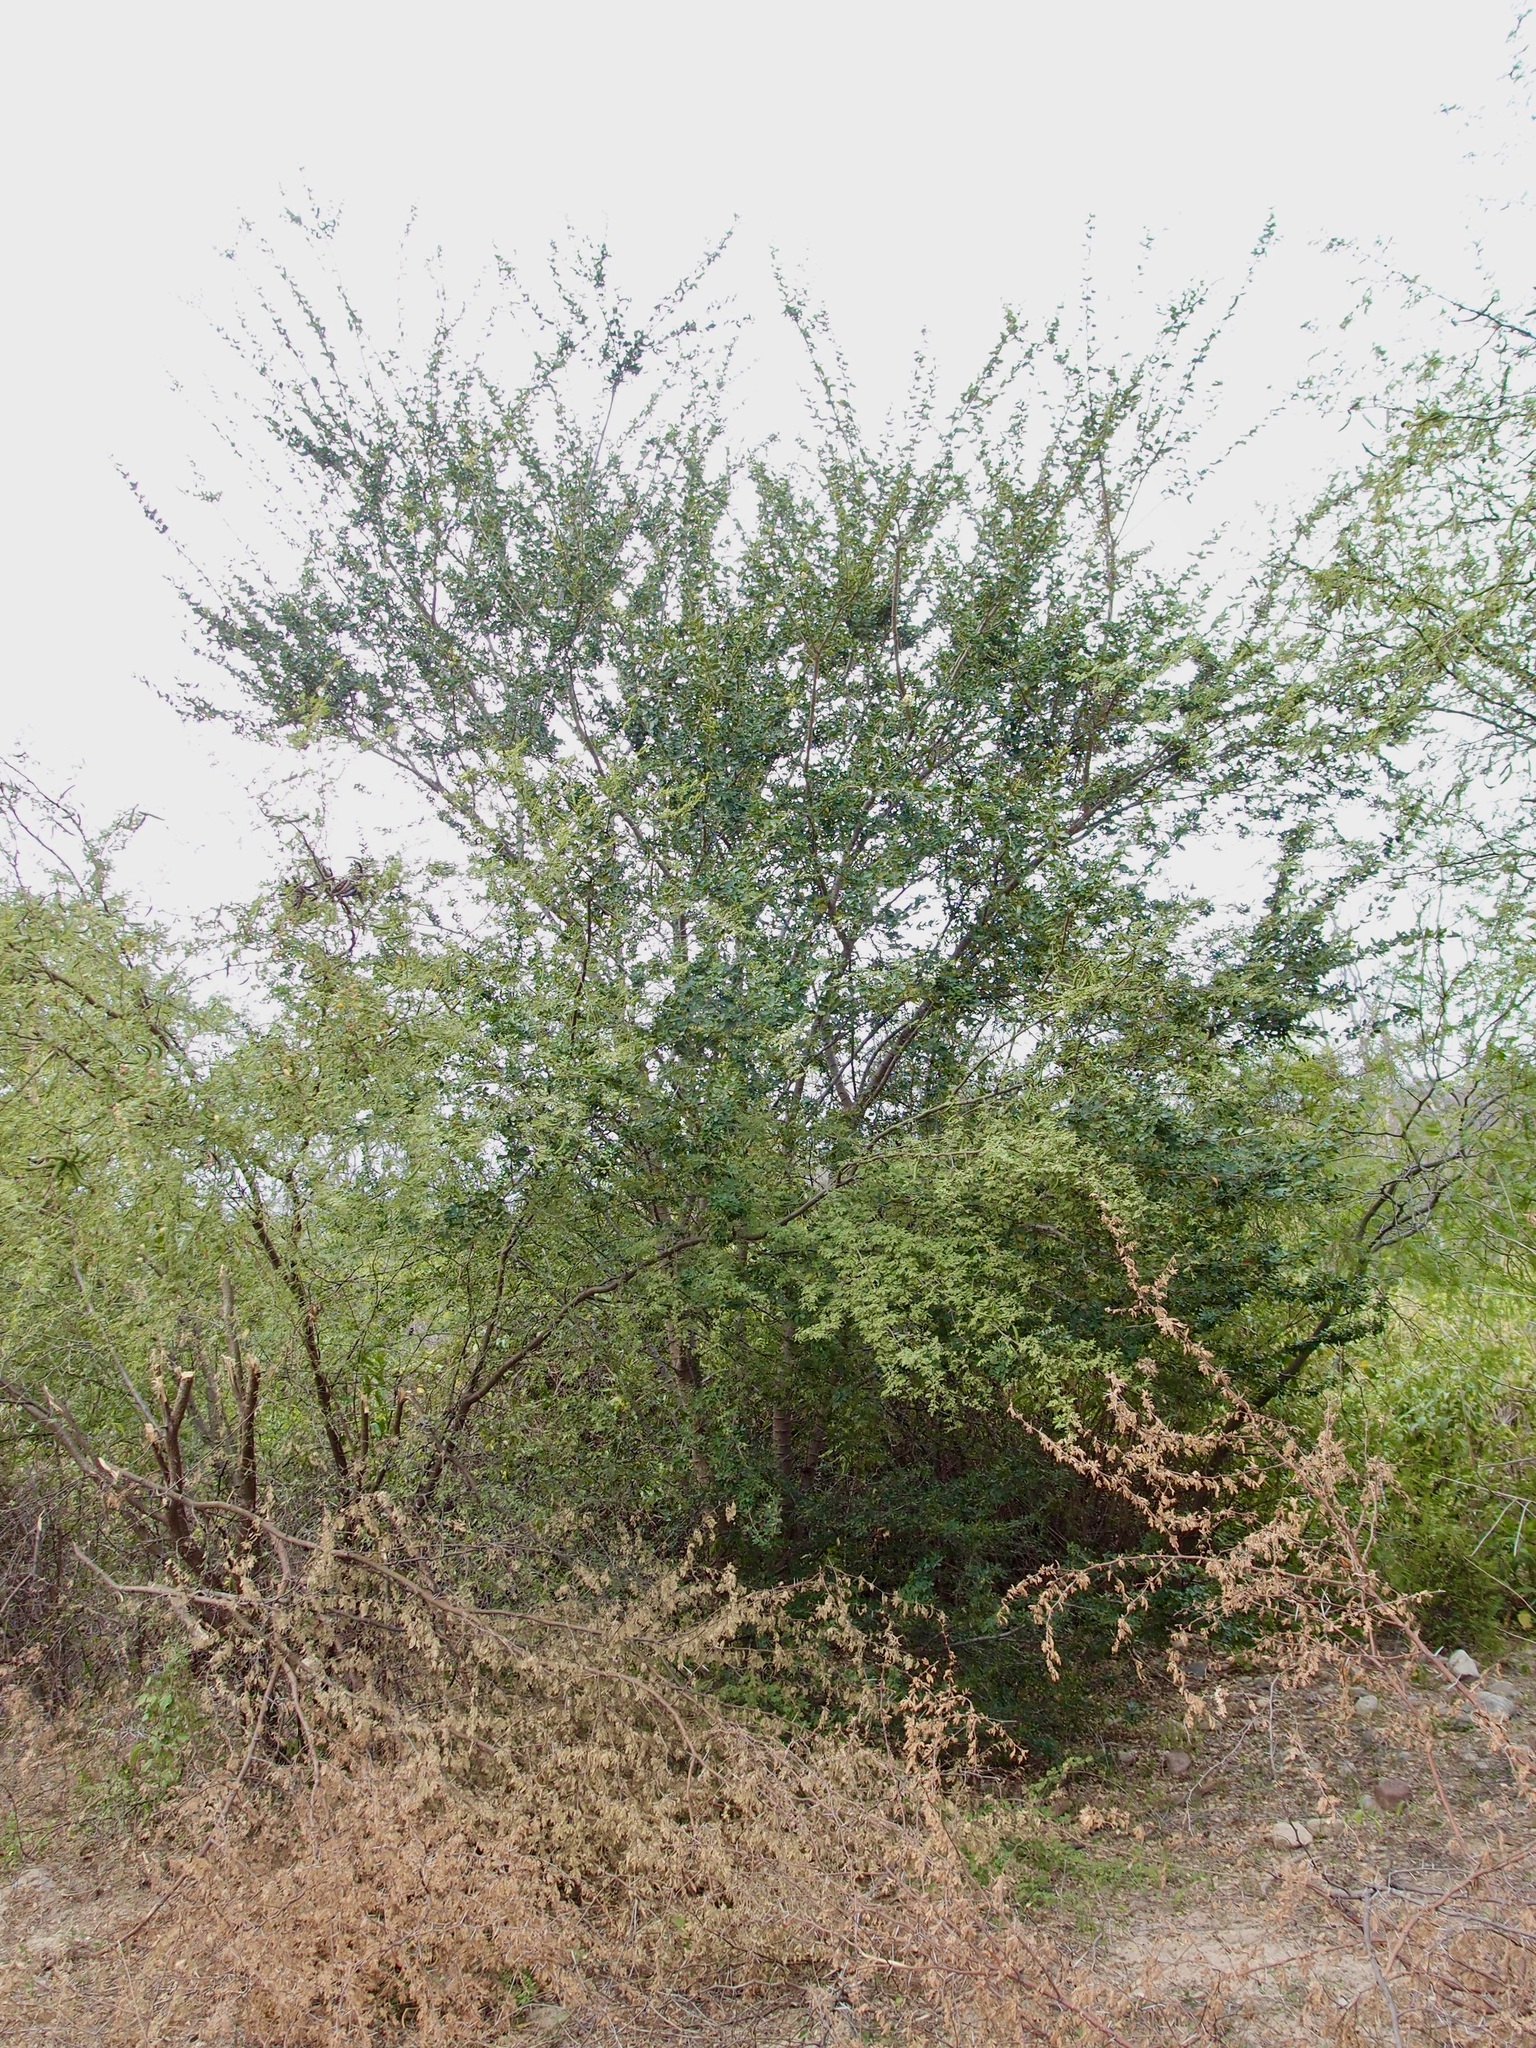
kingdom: Plantae
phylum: Tracheophyta
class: Magnoliopsida
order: Fabales
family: Fabaceae
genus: Pithecellobium
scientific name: Pithecellobium dulce
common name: Monkeypod
